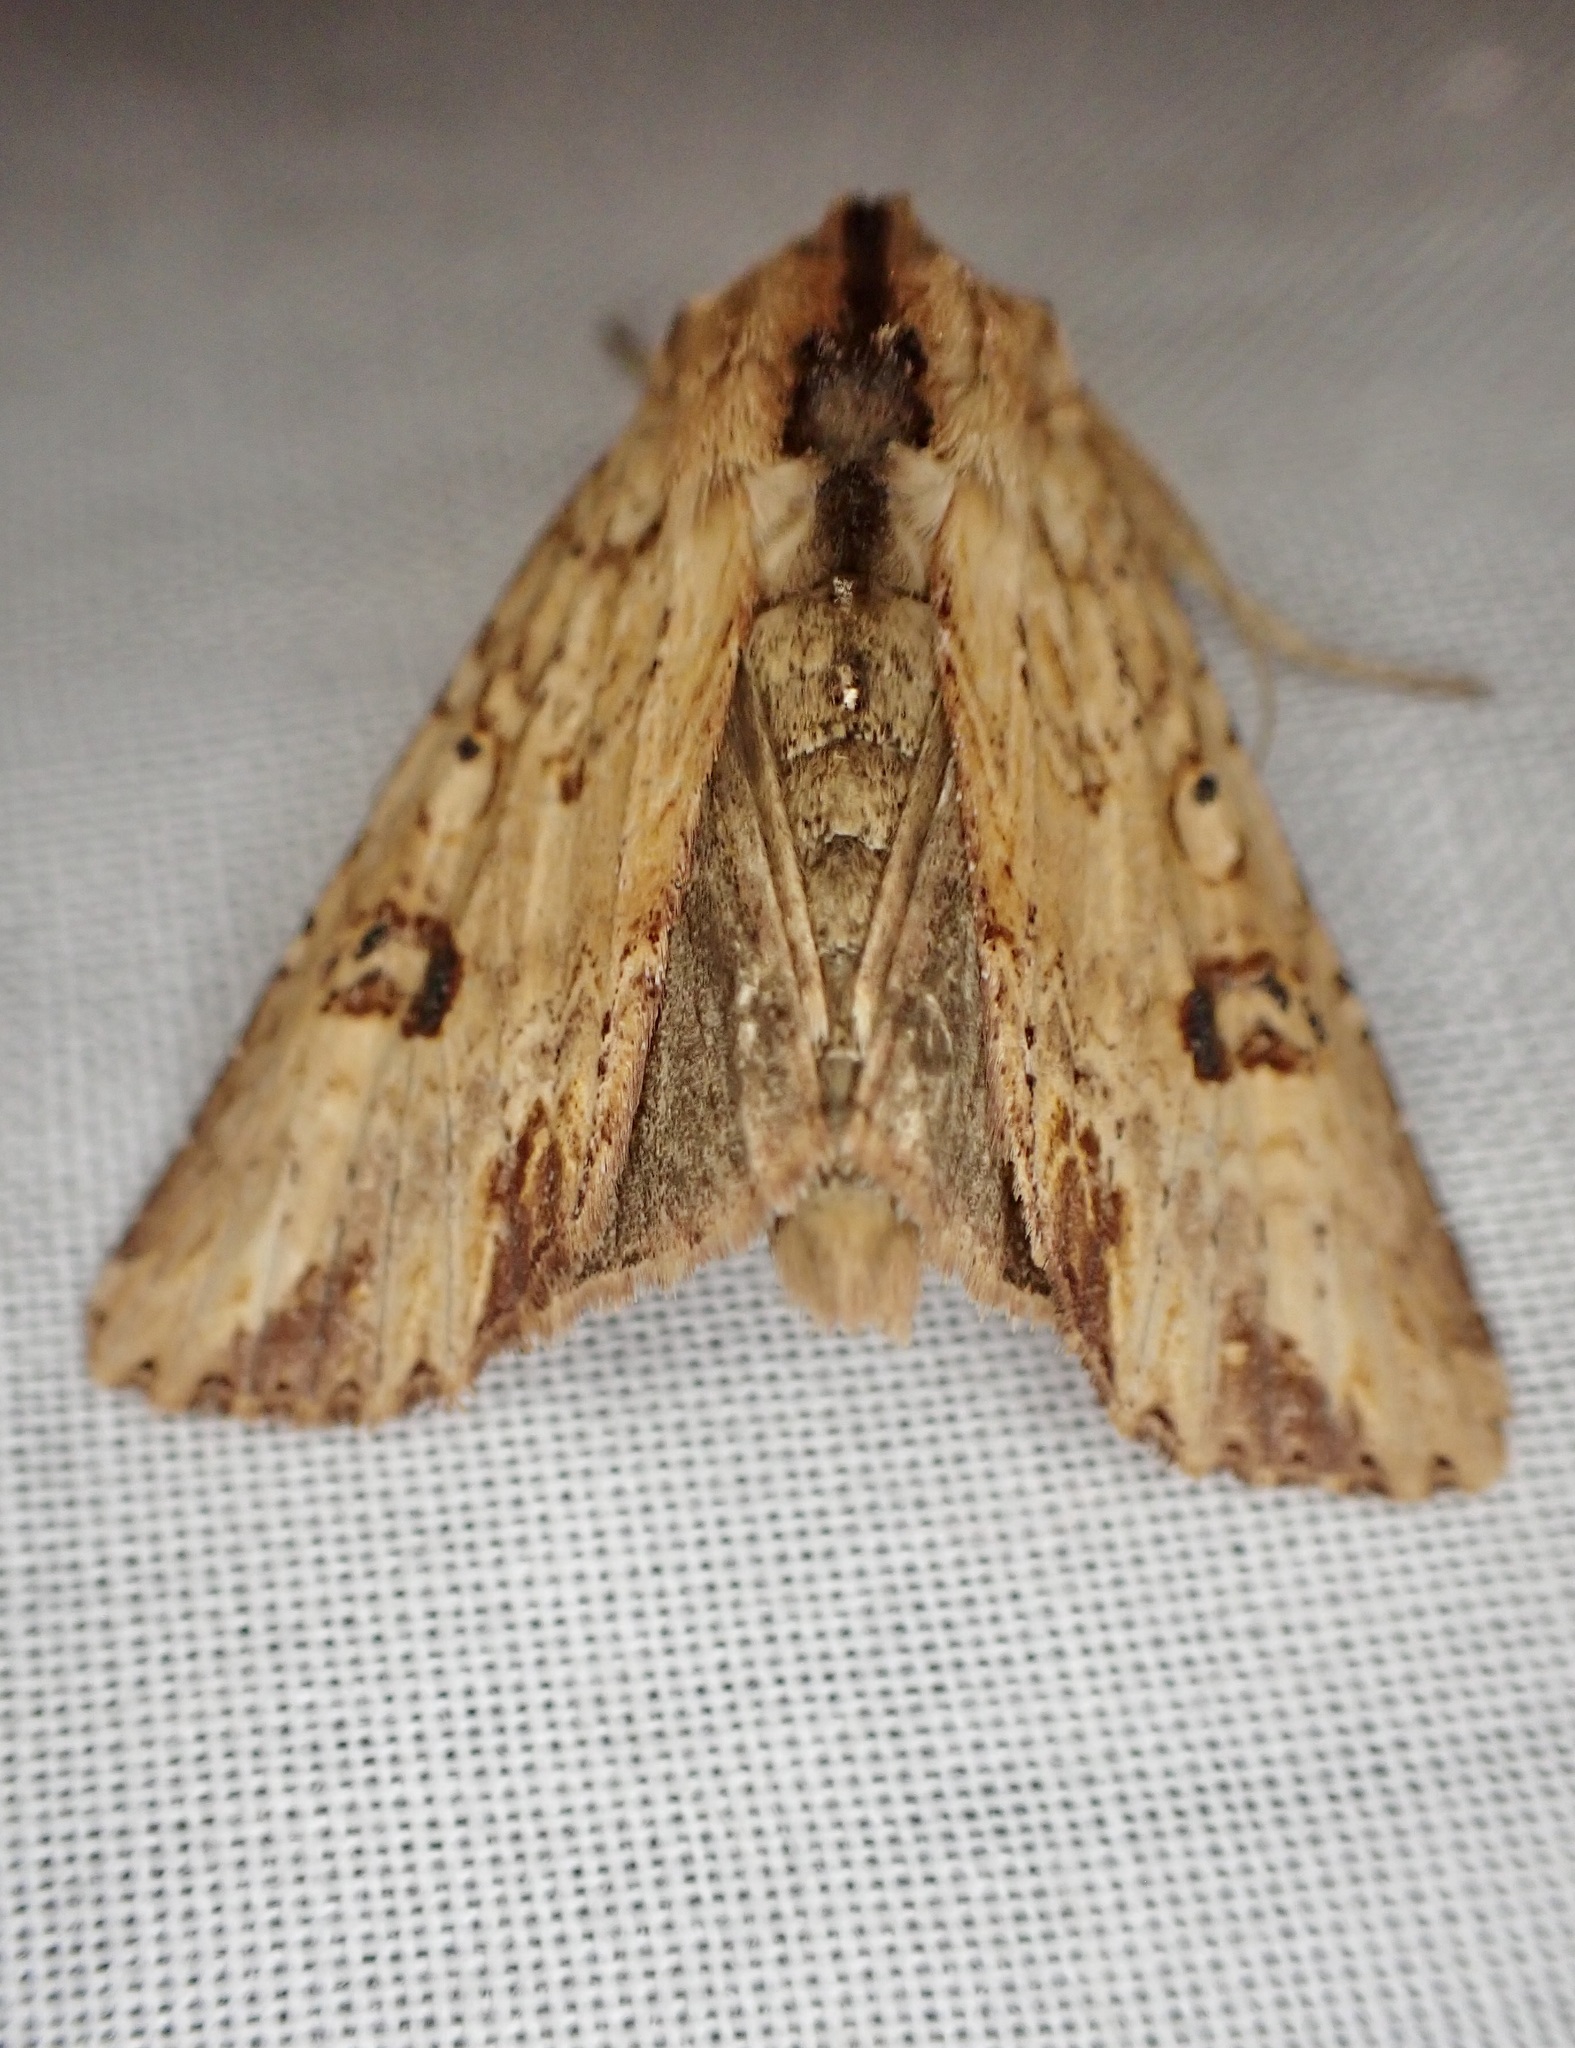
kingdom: Animalia
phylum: Arthropoda
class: Insecta
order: Lepidoptera
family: Noctuidae
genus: Ichneutica
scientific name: Ichneutica
